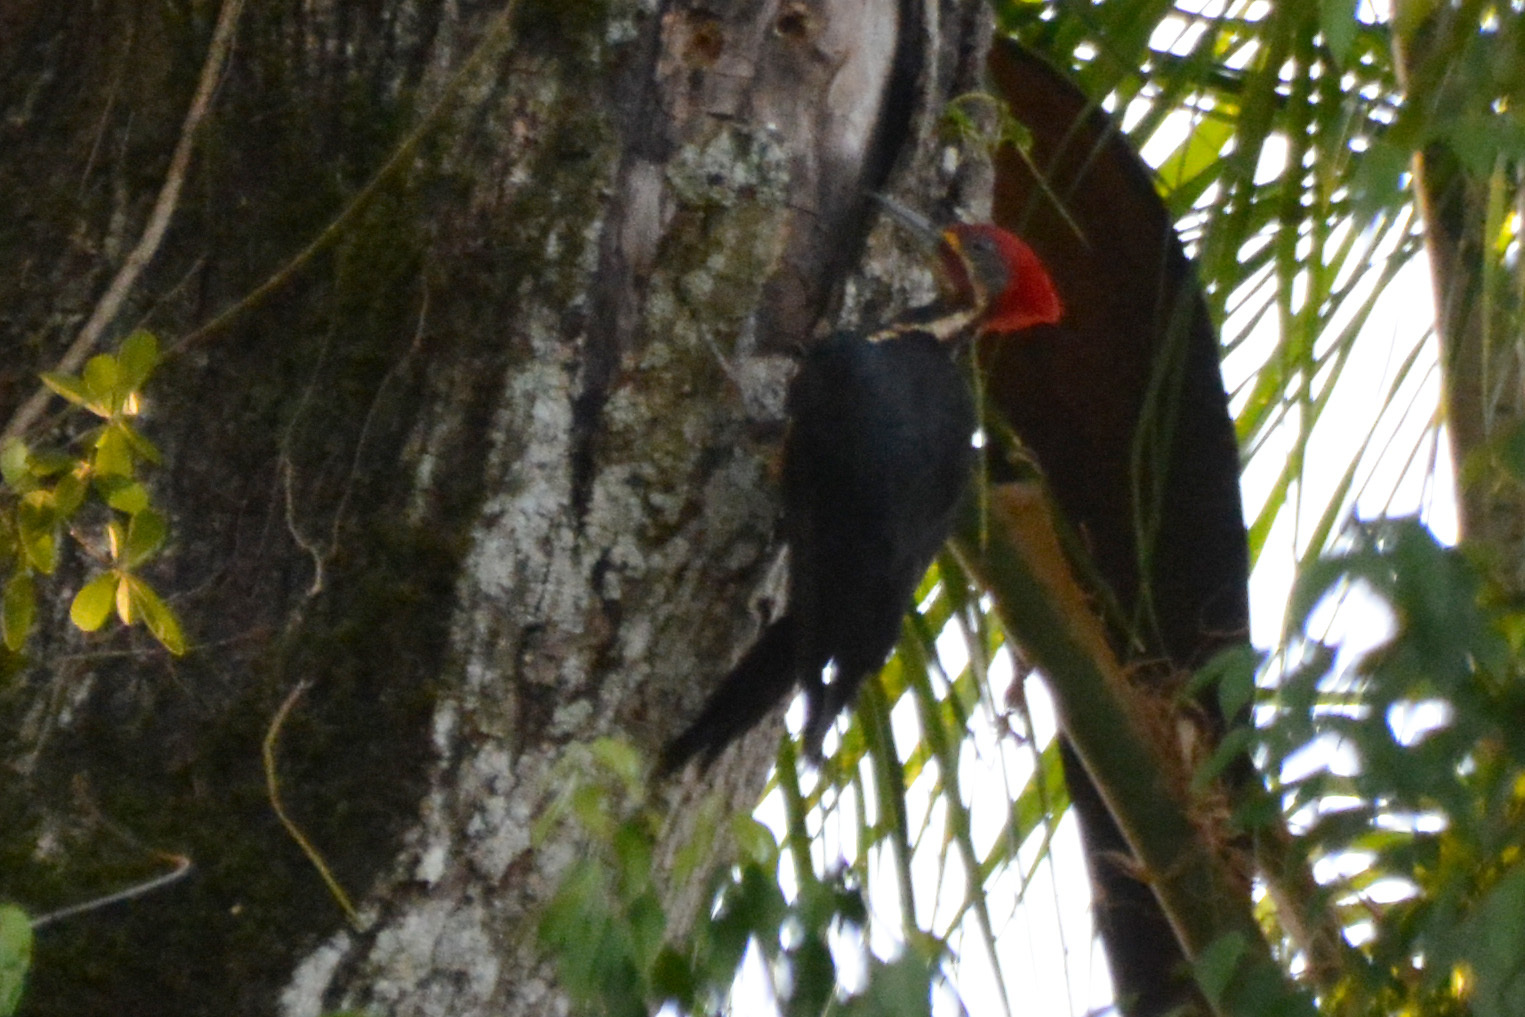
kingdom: Animalia
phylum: Chordata
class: Aves
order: Piciformes
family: Picidae
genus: Dryocopus
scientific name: Dryocopus lineatus
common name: Lineated woodpecker
